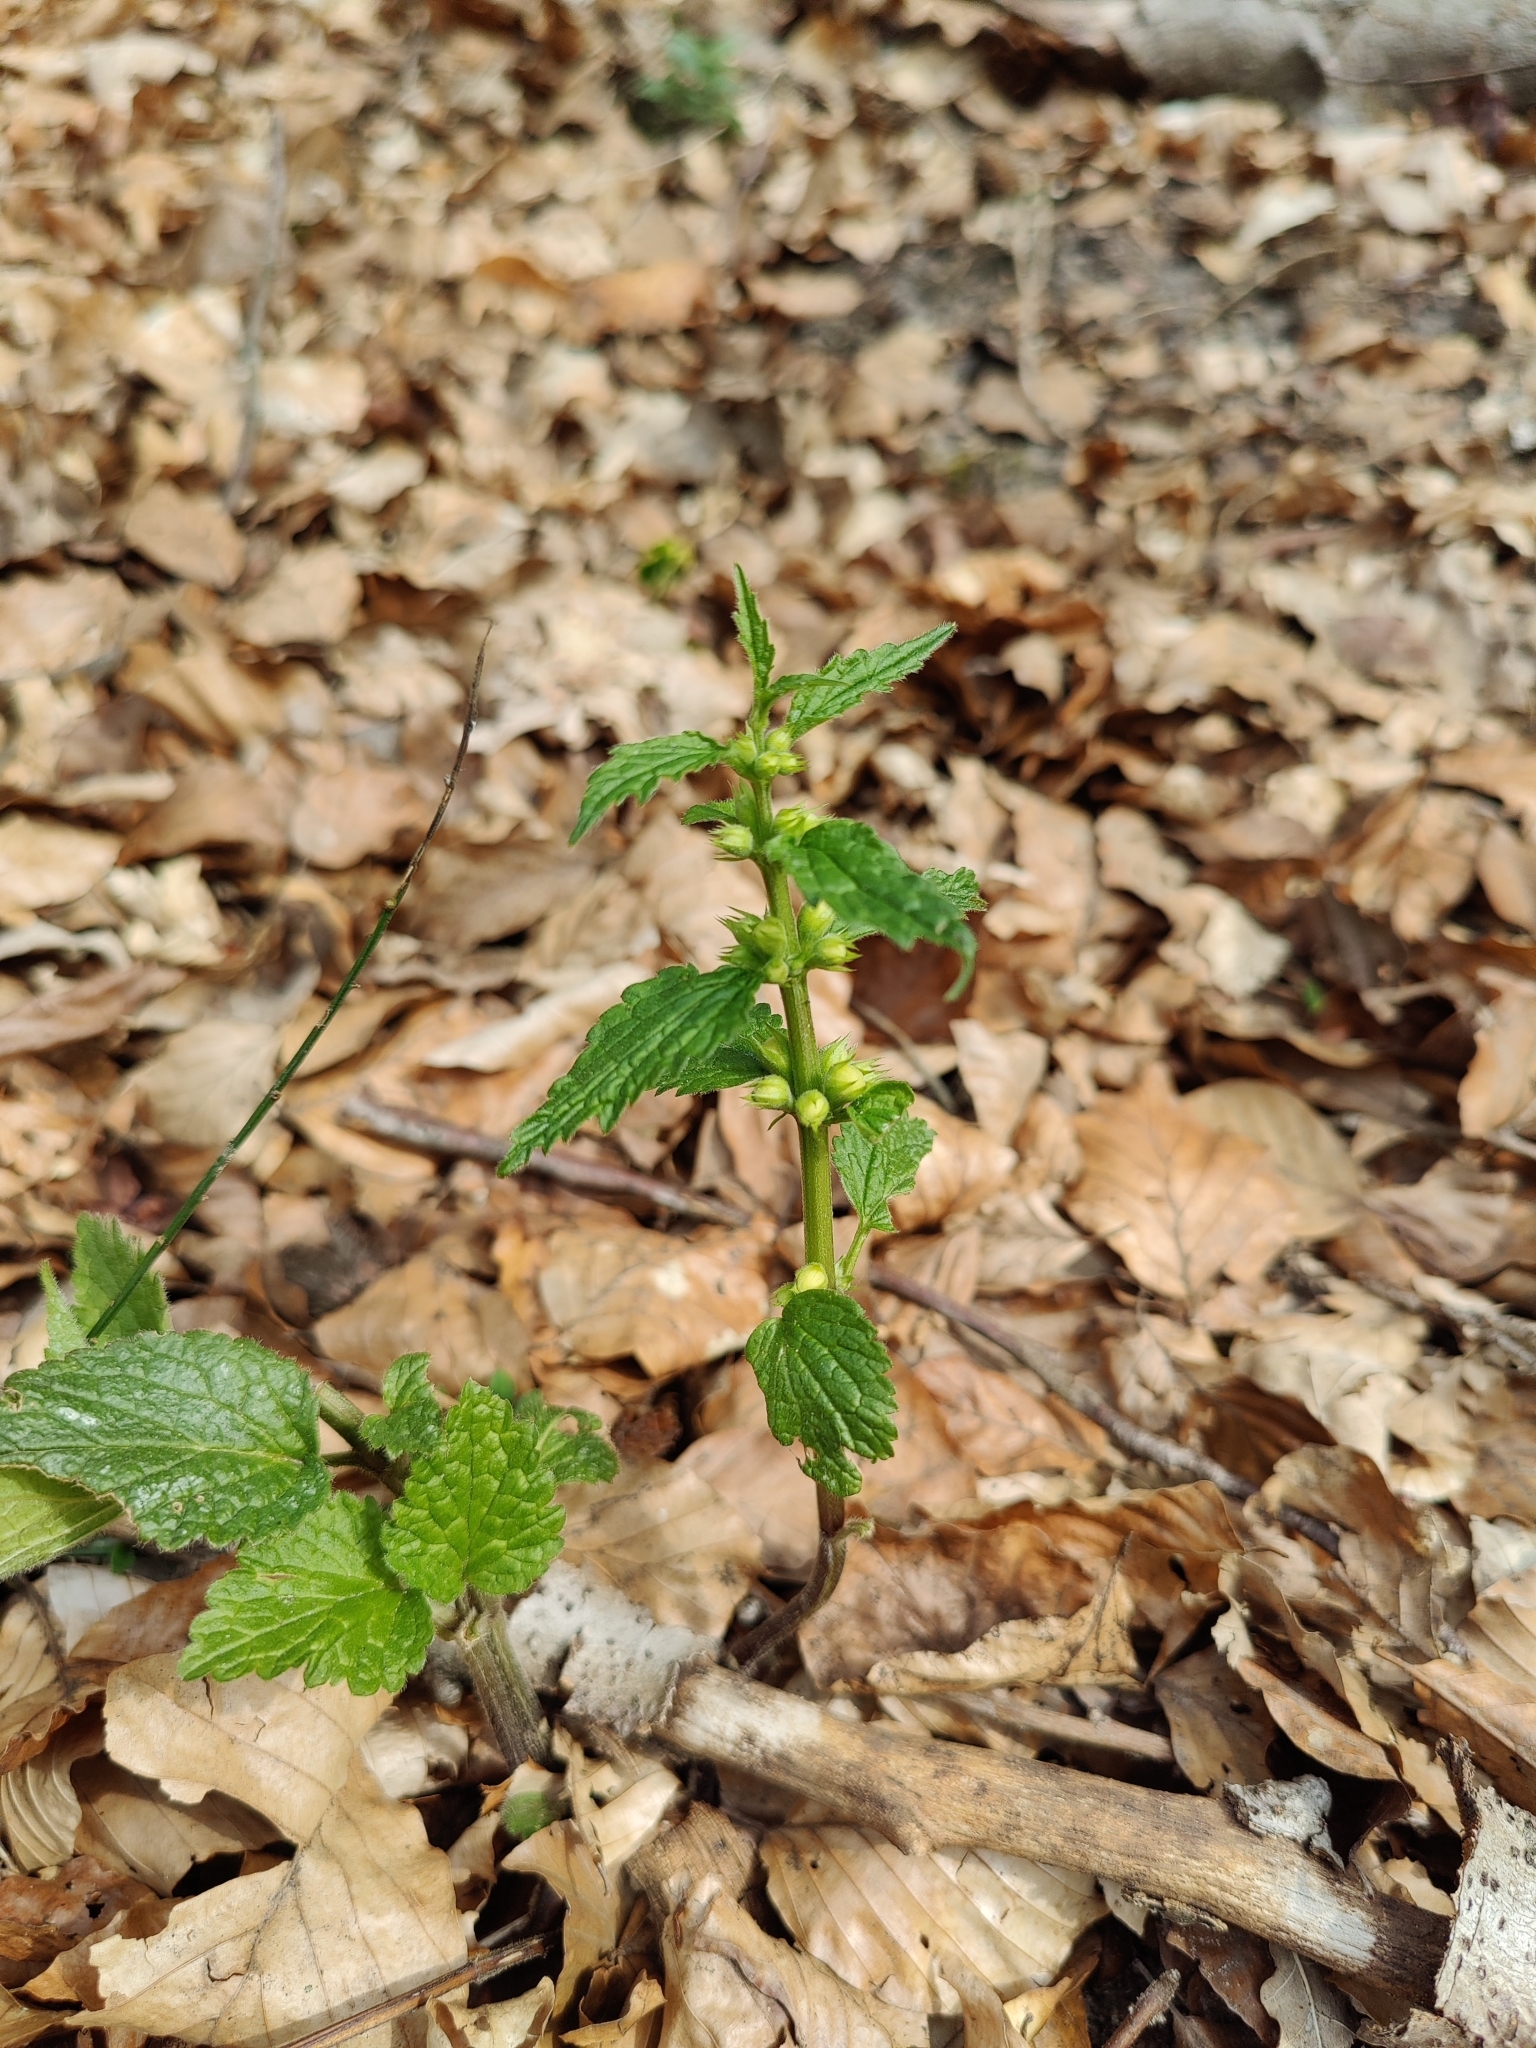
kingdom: Plantae
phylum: Tracheophyta
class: Magnoliopsida
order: Lamiales
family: Lamiaceae
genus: Lamium
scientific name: Lamium galeobdolon
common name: Yellow archangel
